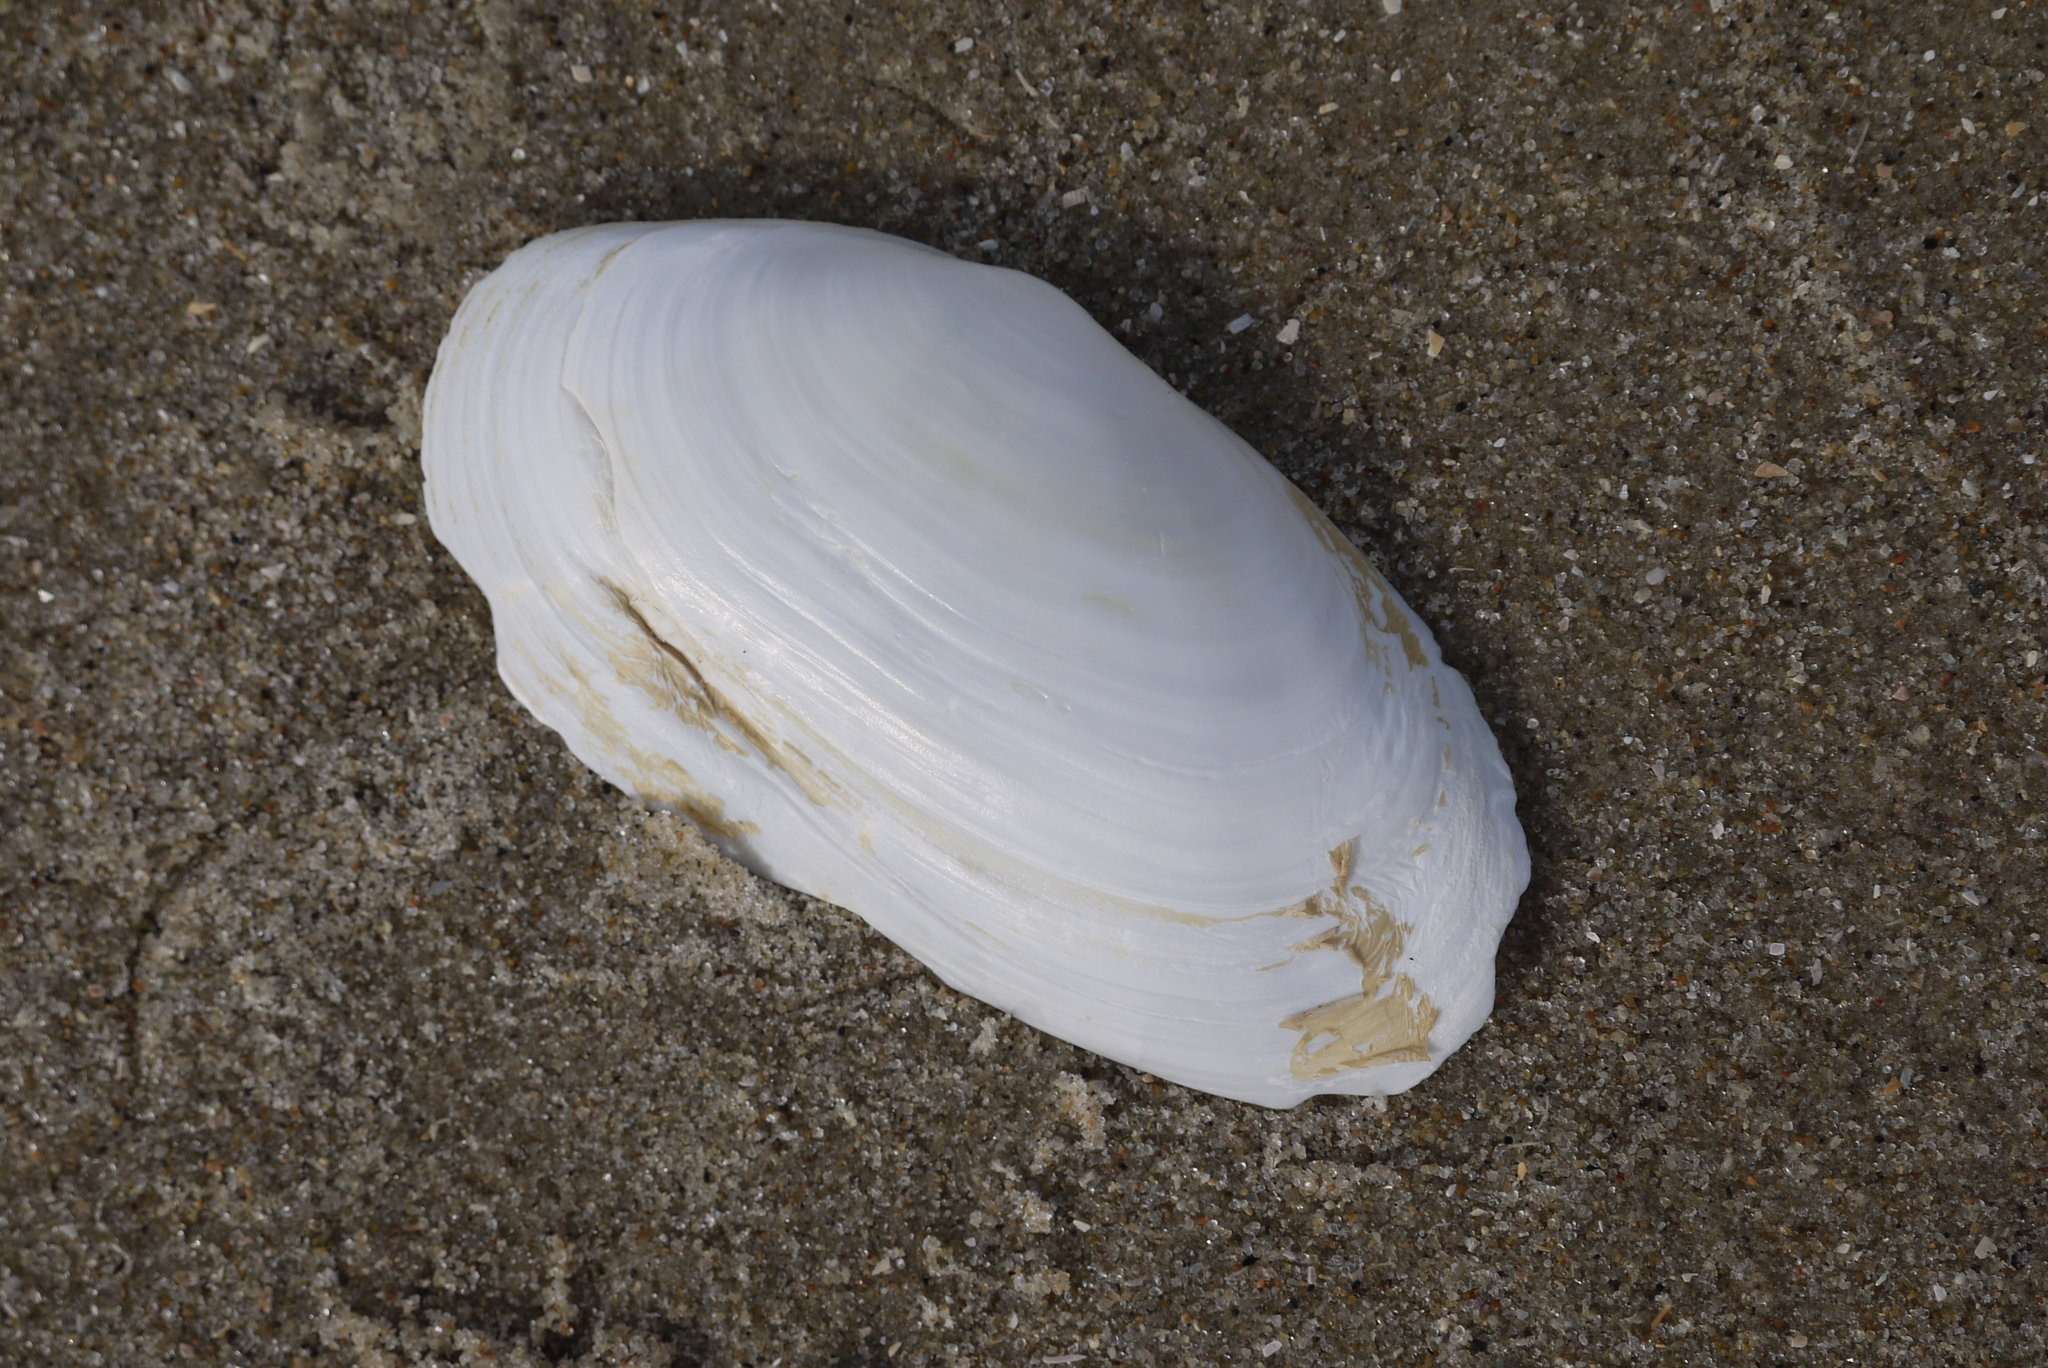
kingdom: Animalia
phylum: Mollusca
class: Bivalvia
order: Venerida
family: Mactridae
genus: Lutraria
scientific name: Lutraria lutraria
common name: Common otter shell
